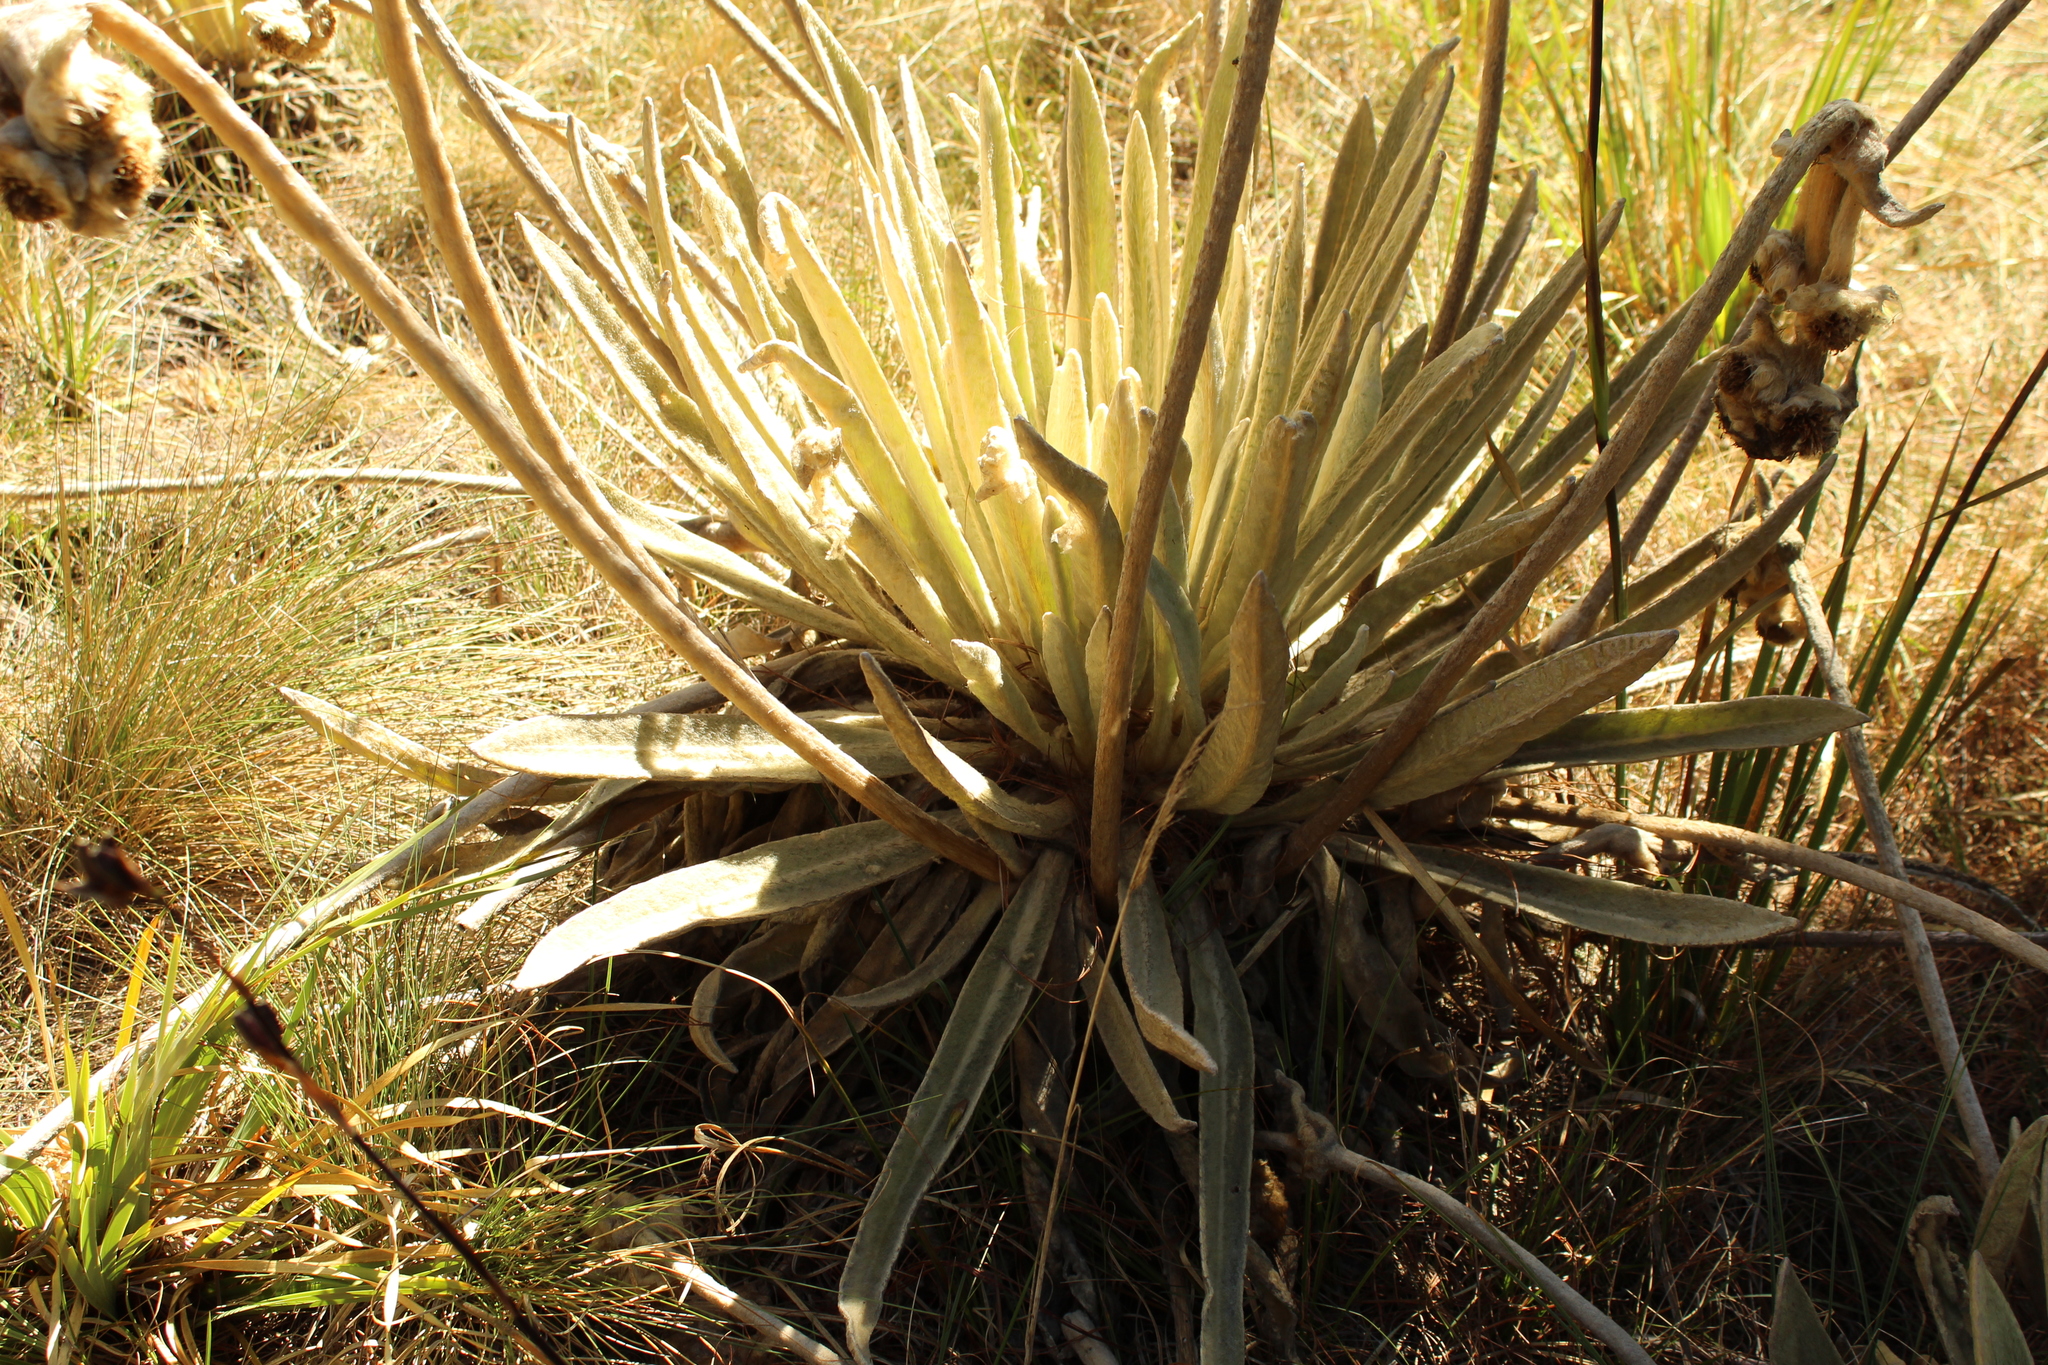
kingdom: Plantae
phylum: Tracheophyta
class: Magnoliopsida
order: Asterales
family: Asteraceae
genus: Espeletia
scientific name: Espeletia congestiflora
